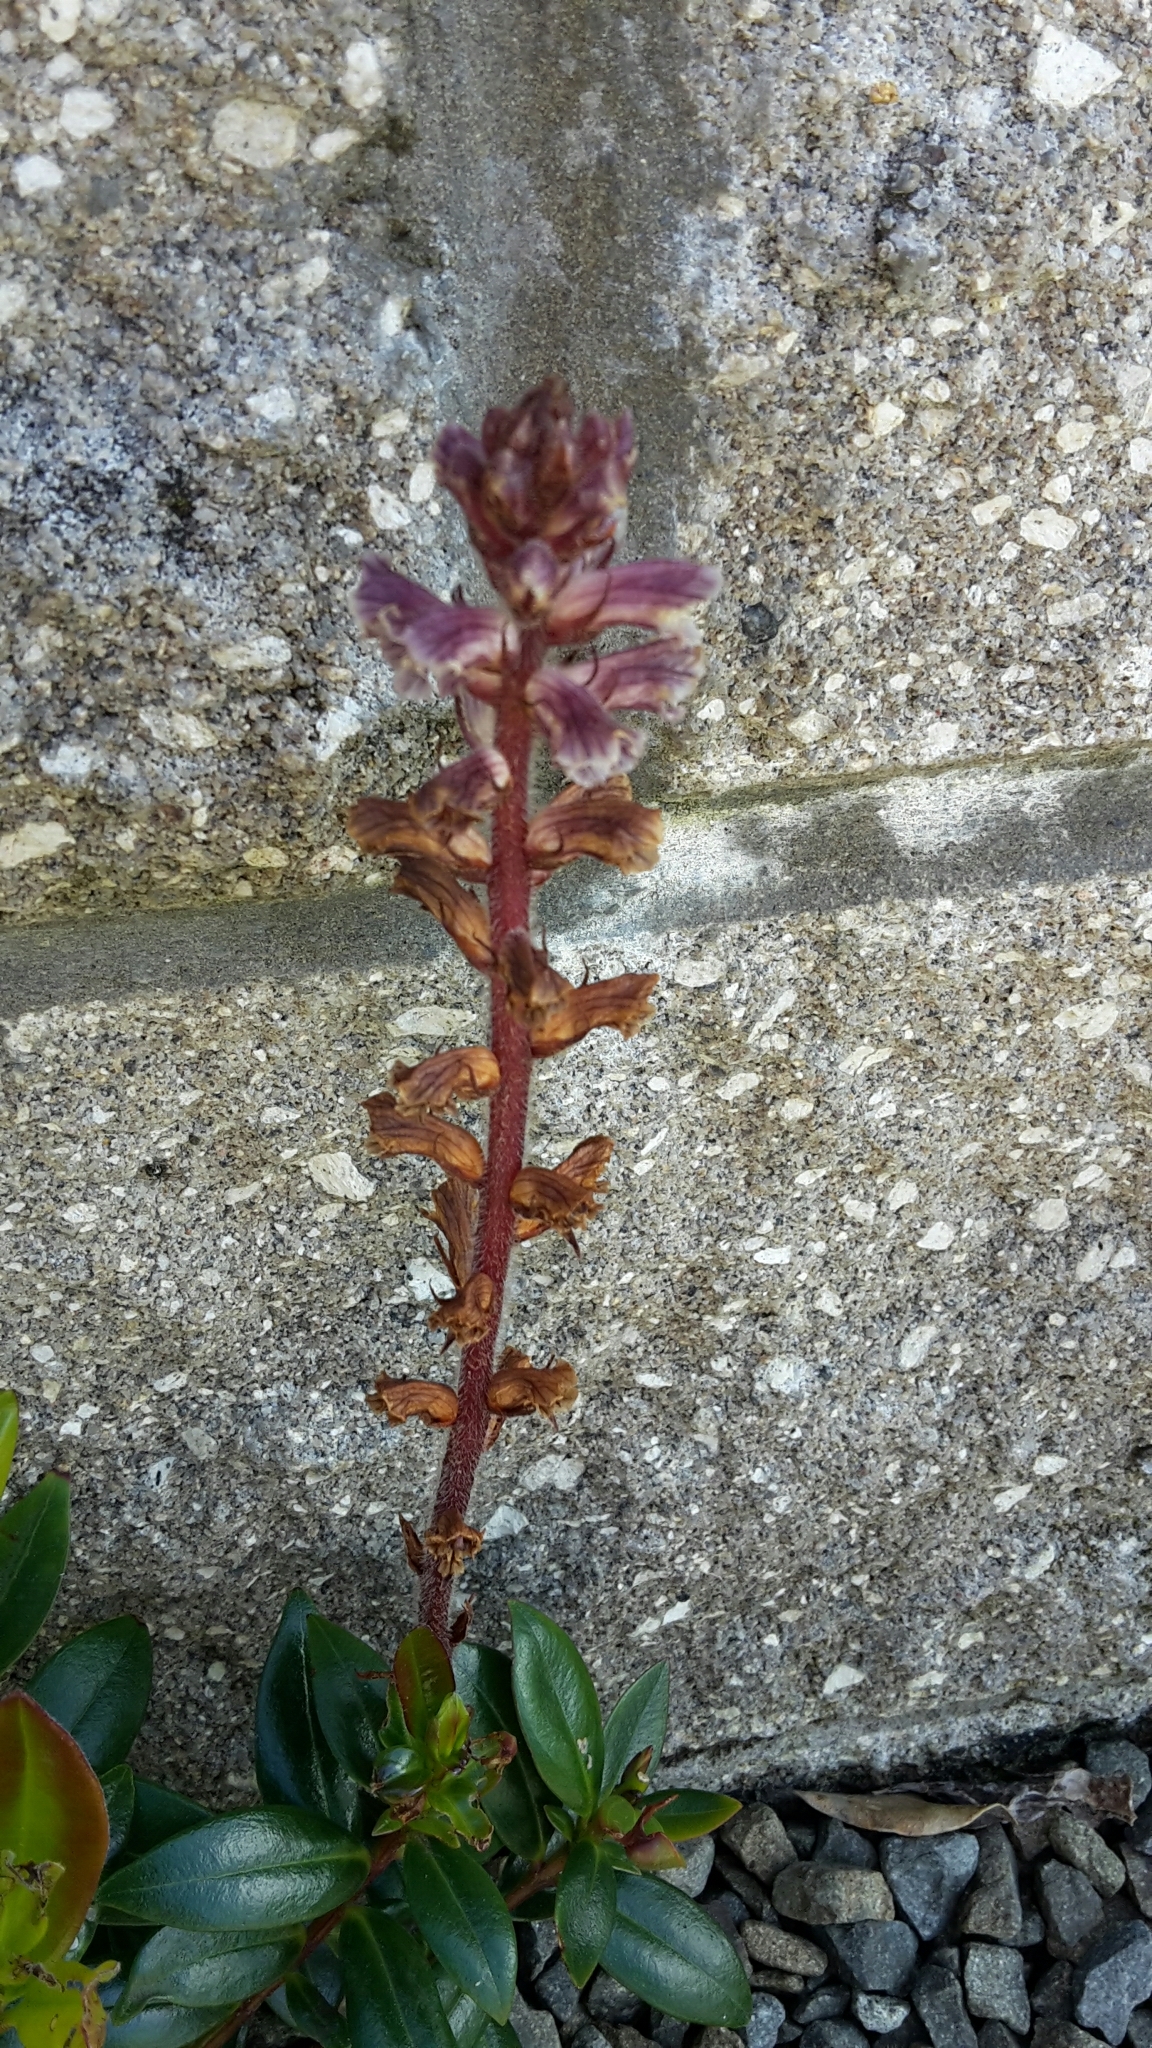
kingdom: Plantae
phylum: Tracheophyta
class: Magnoliopsida
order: Lamiales
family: Orobanchaceae
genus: Orobanche
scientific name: Orobanche minor
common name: Common broomrape
